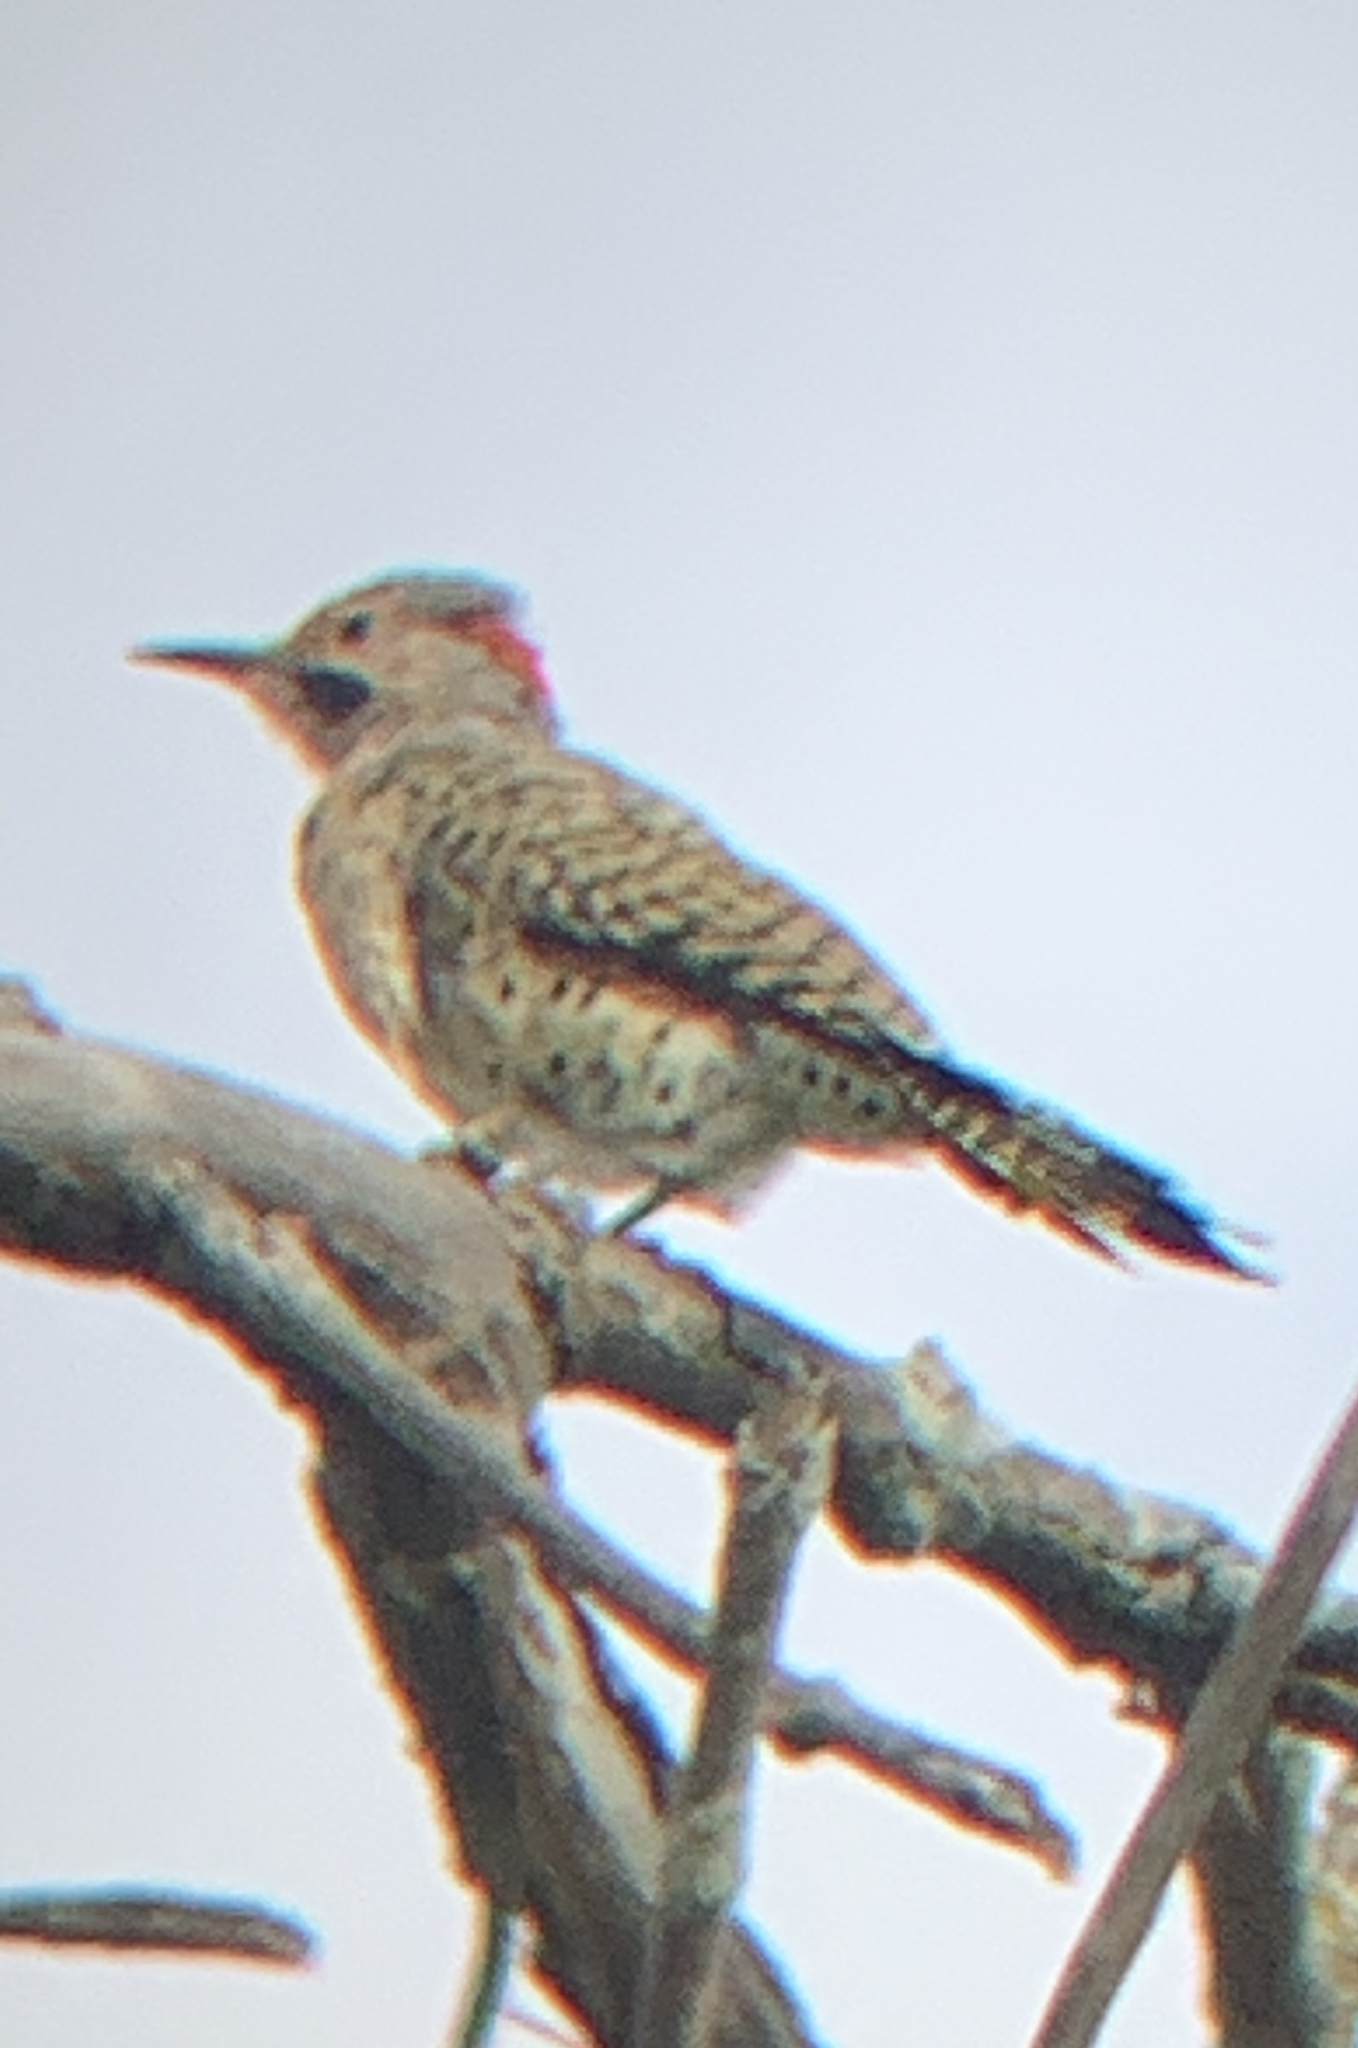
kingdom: Animalia
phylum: Chordata
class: Aves
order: Piciformes
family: Picidae
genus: Colaptes
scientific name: Colaptes auratus
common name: Northern flicker
